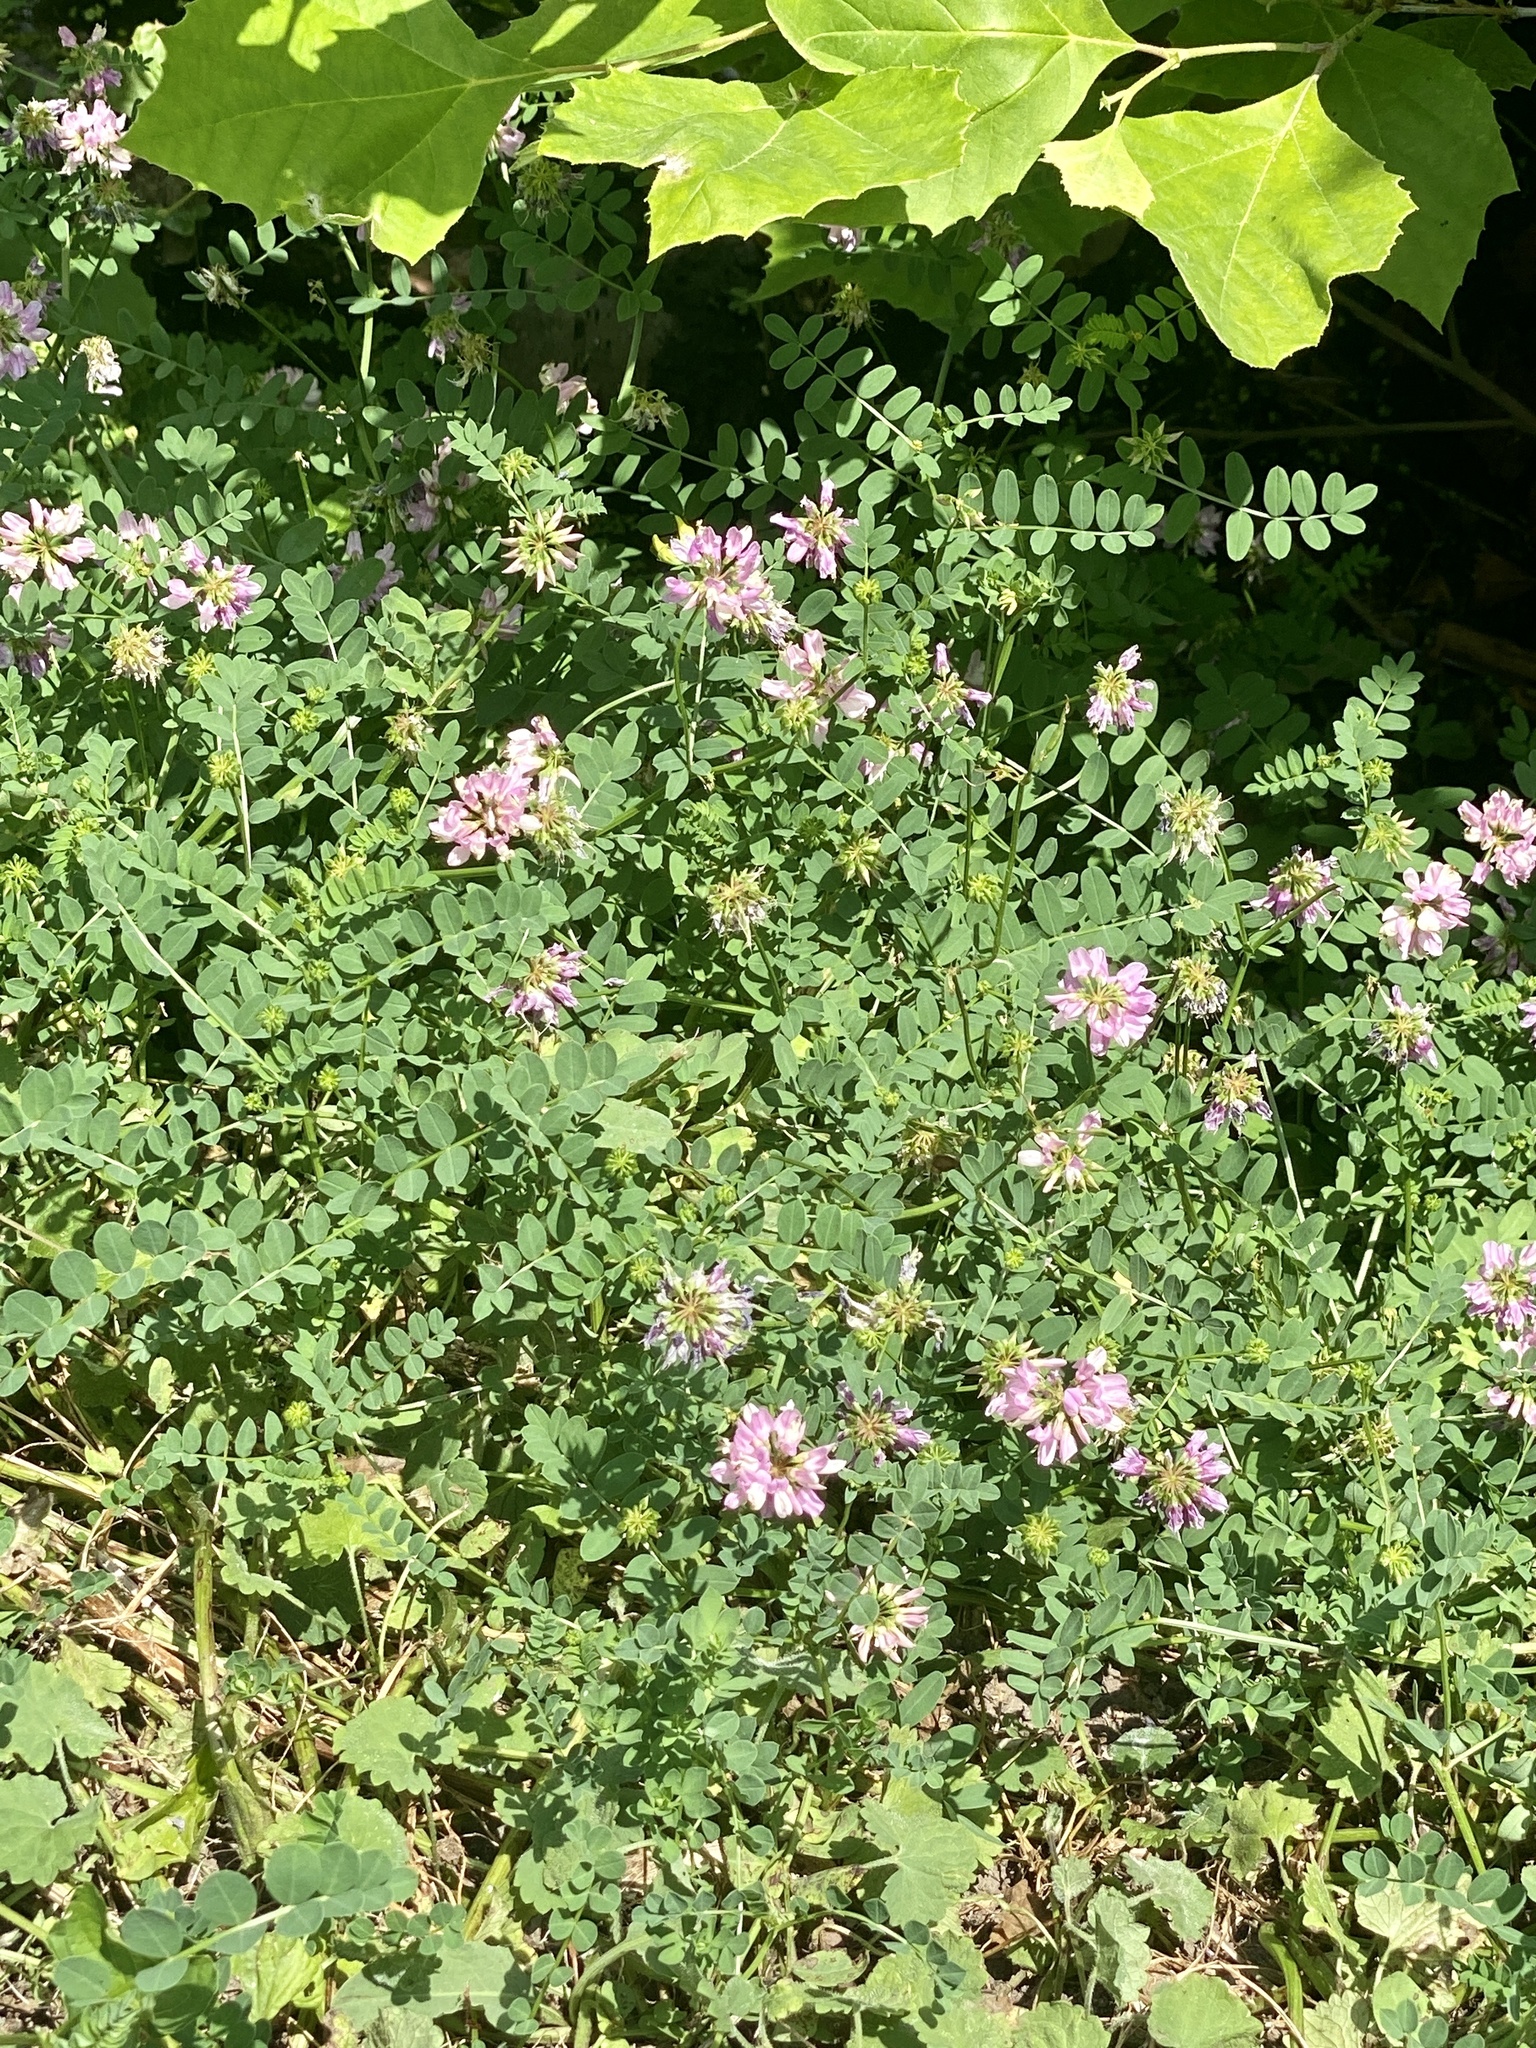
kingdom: Plantae
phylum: Tracheophyta
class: Magnoliopsida
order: Fabales
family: Fabaceae
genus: Coronilla
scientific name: Coronilla varia
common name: Crownvetch
